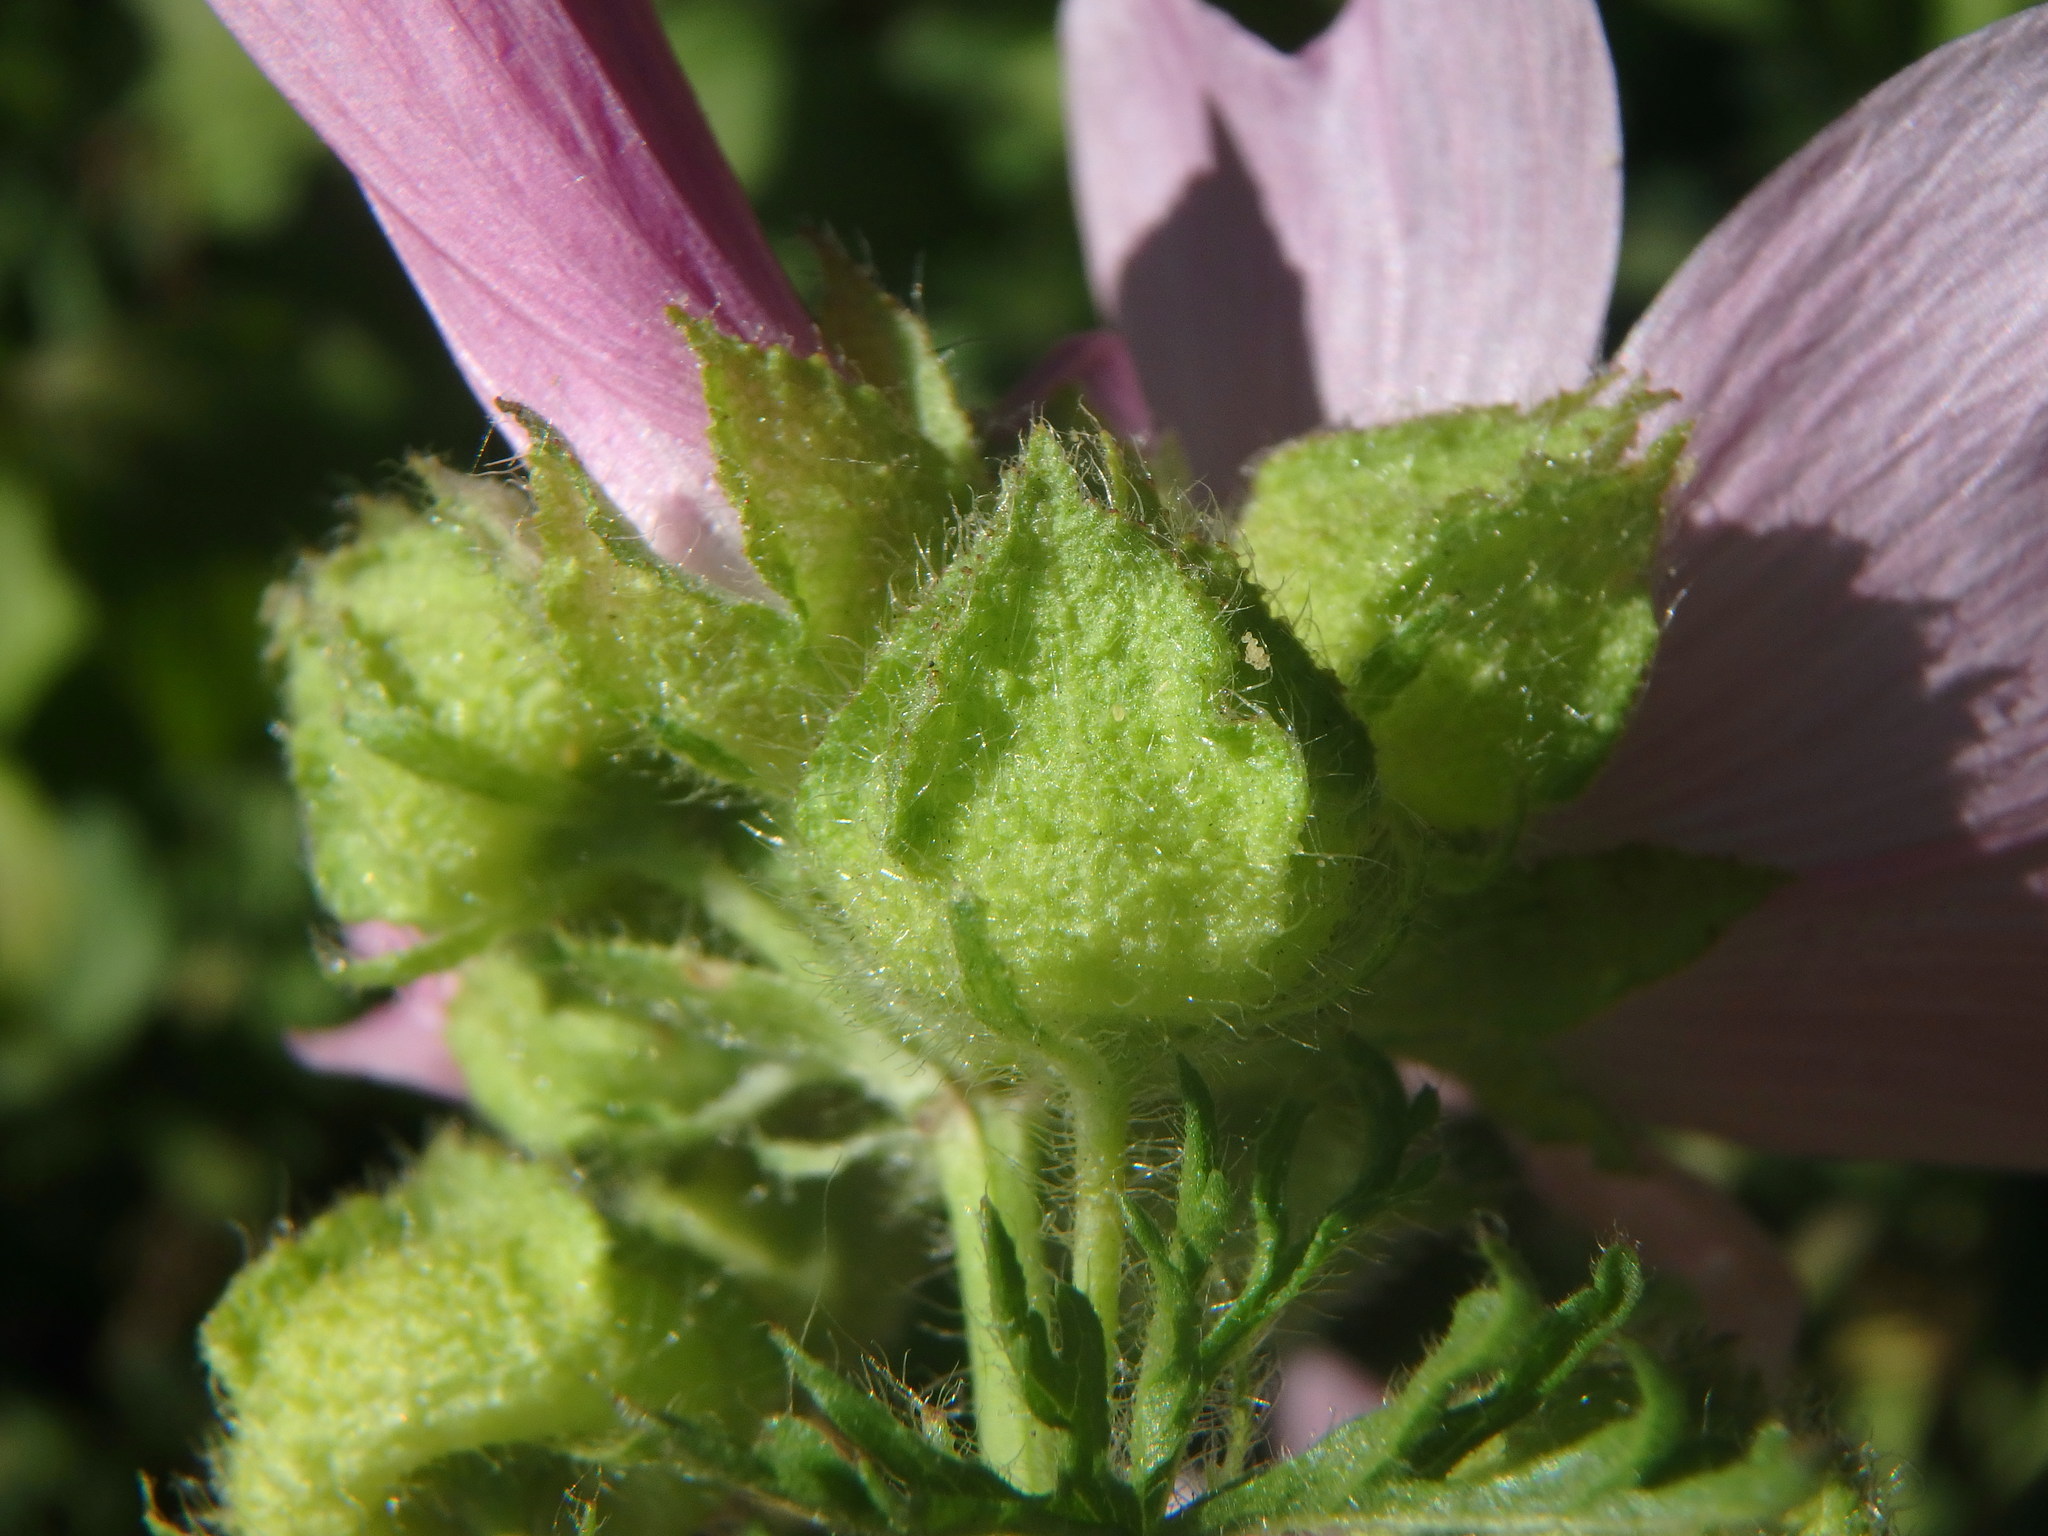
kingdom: Plantae
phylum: Tracheophyta
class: Magnoliopsida
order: Malvales
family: Malvaceae
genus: Malva
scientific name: Malva moschata
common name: Musk mallow
